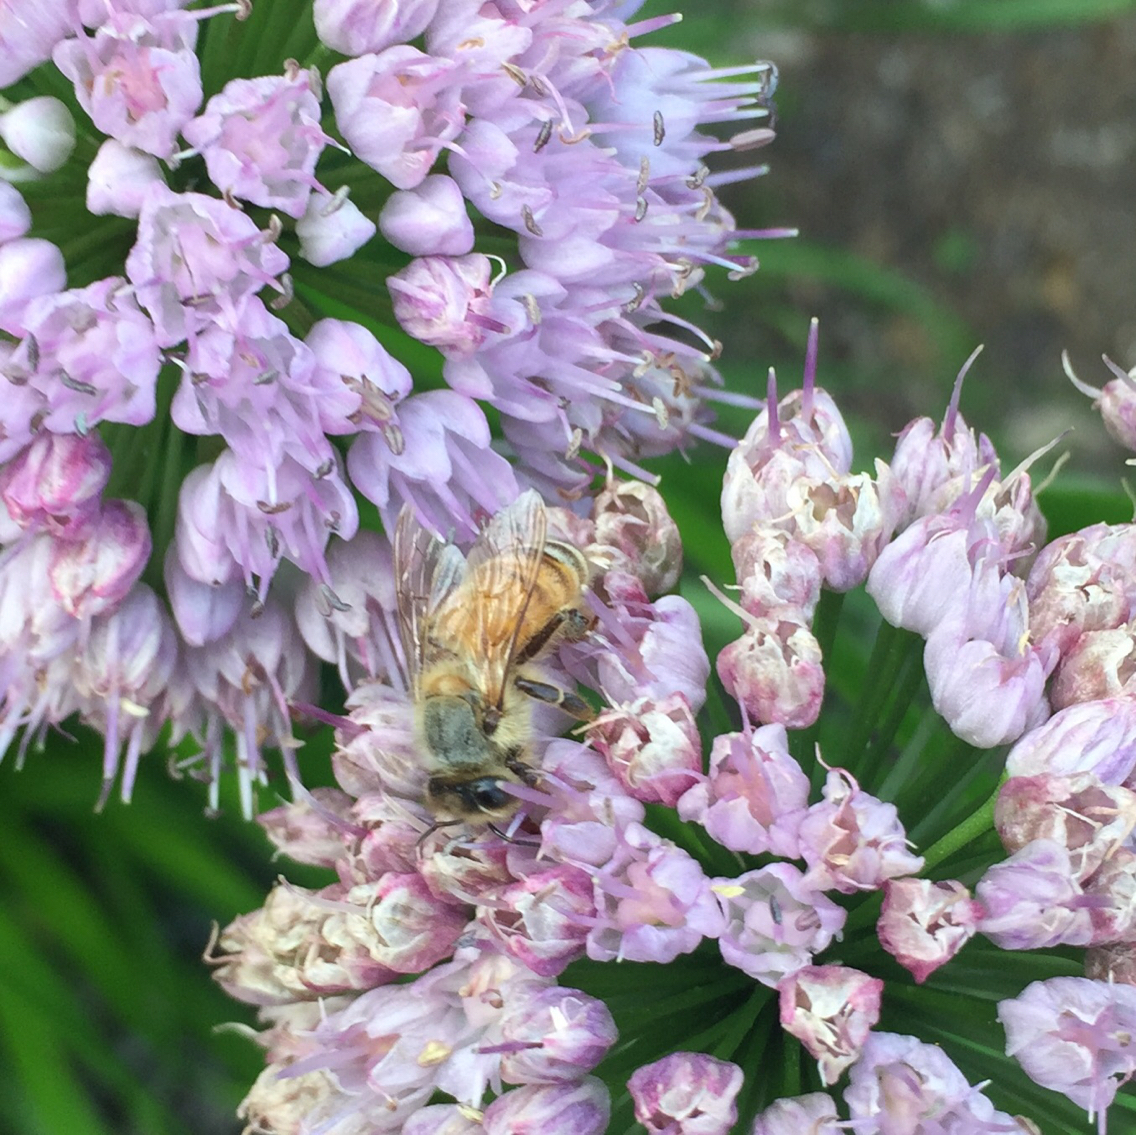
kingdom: Animalia
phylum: Arthropoda
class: Insecta
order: Hymenoptera
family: Apidae
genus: Apis
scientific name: Apis mellifera
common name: Honey bee
